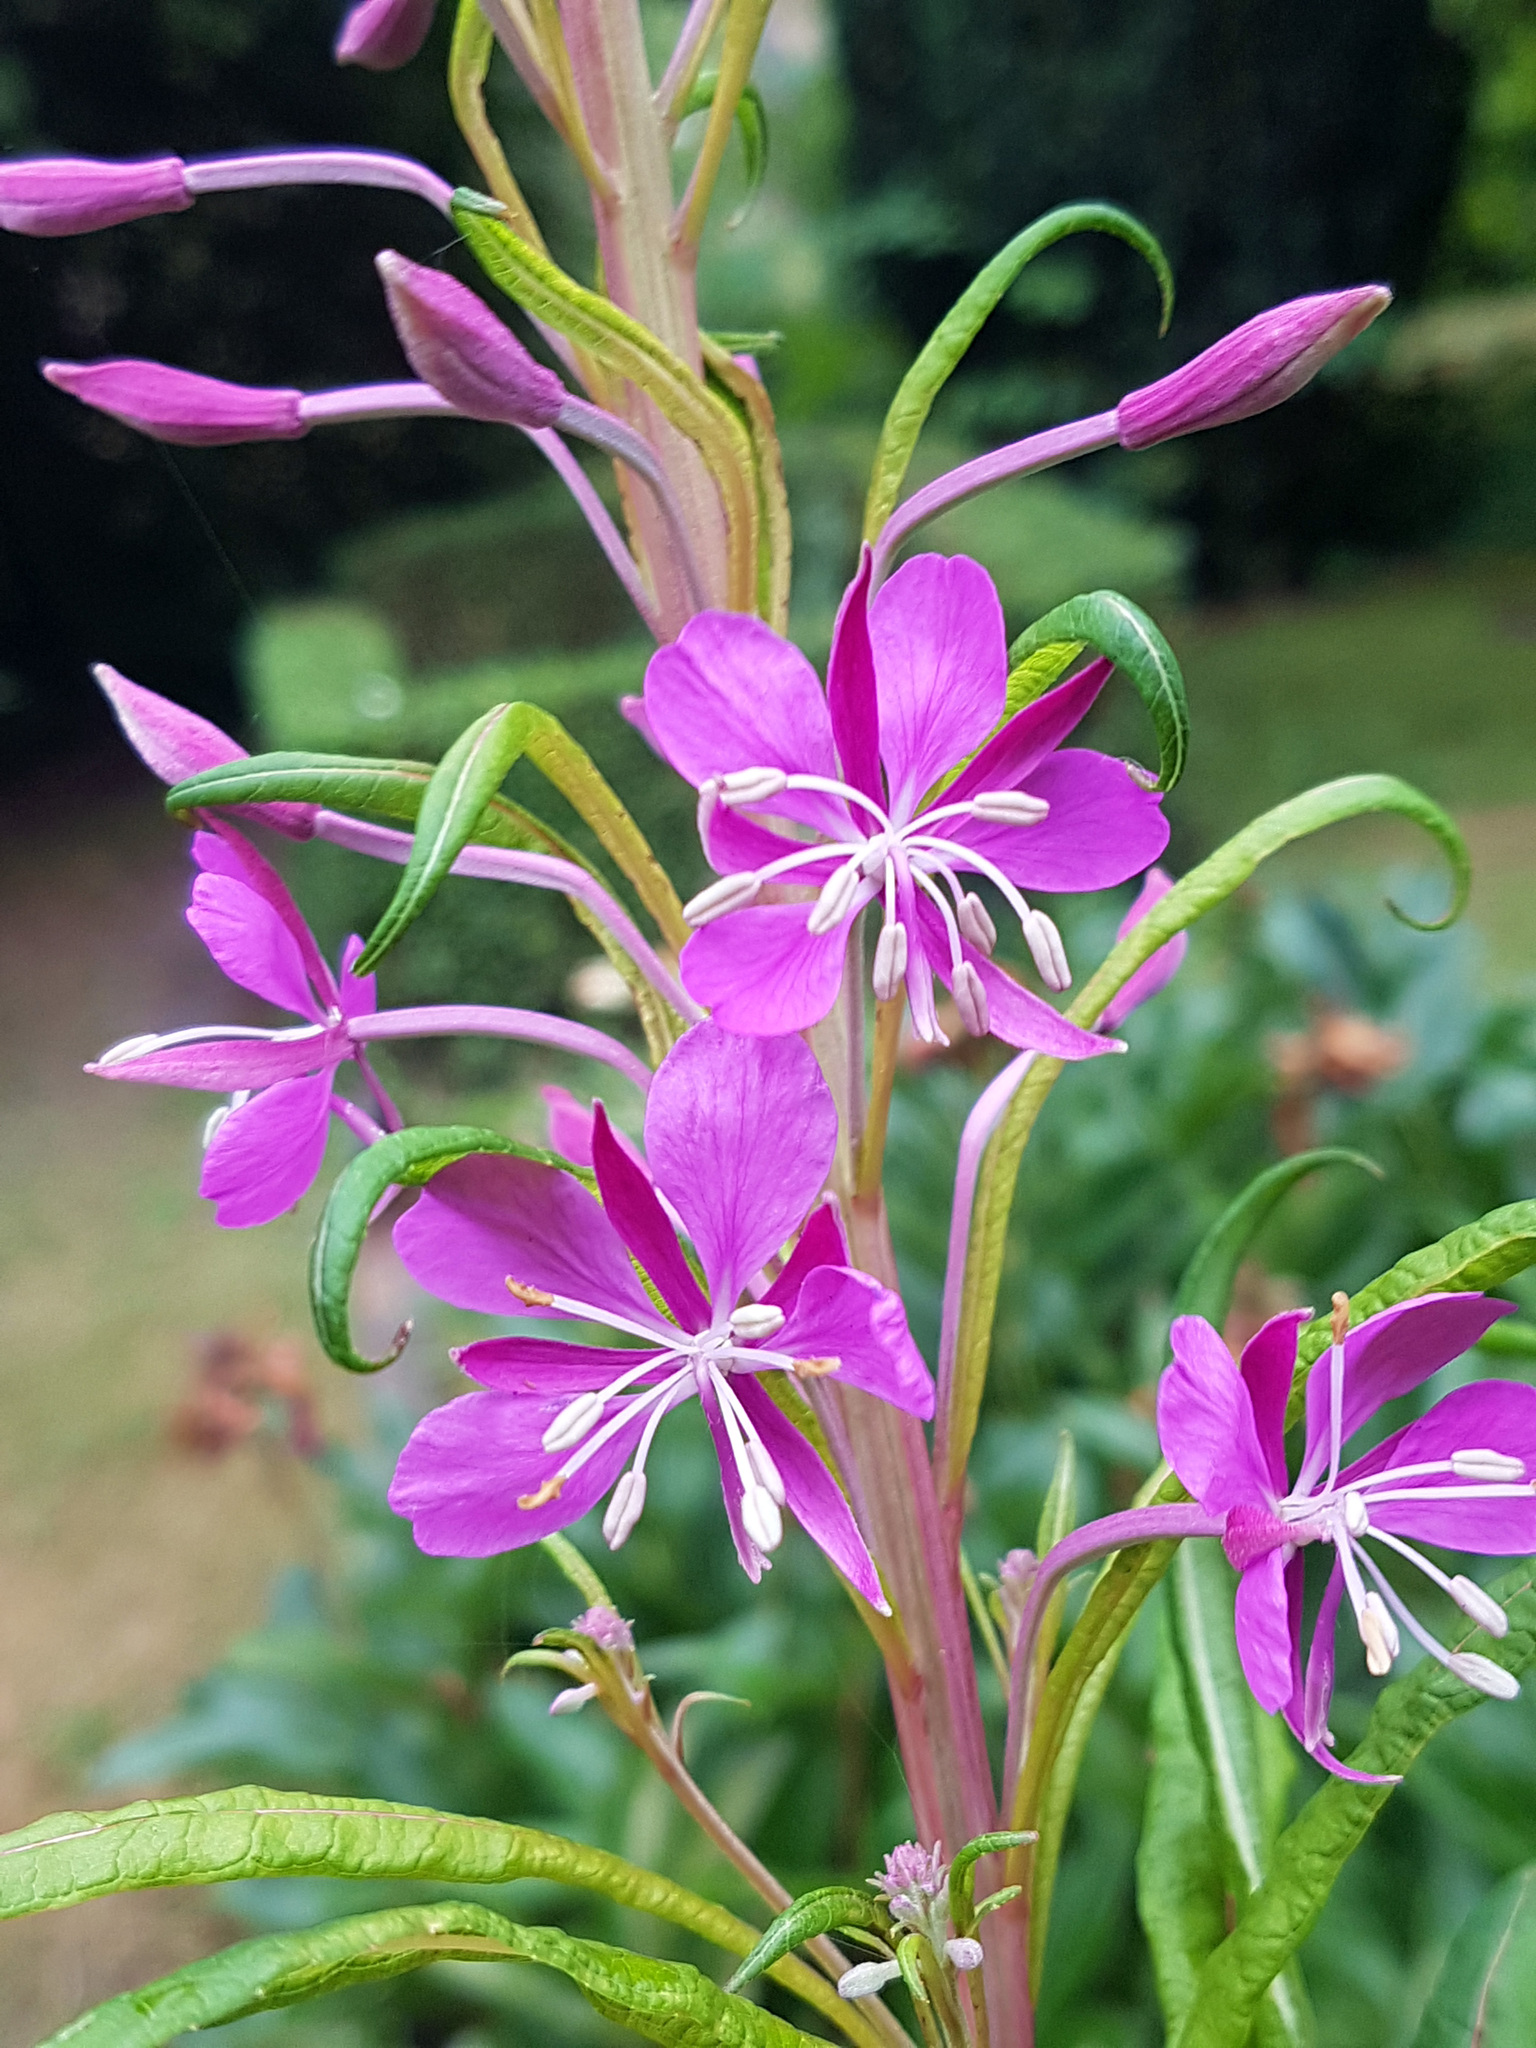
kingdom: Plantae
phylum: Tracheophyta
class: Magnoliopsida
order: Myrtales
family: Onagraceae
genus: Chamaenerion
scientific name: Chamaenerion angustifolium
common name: Fireweed
